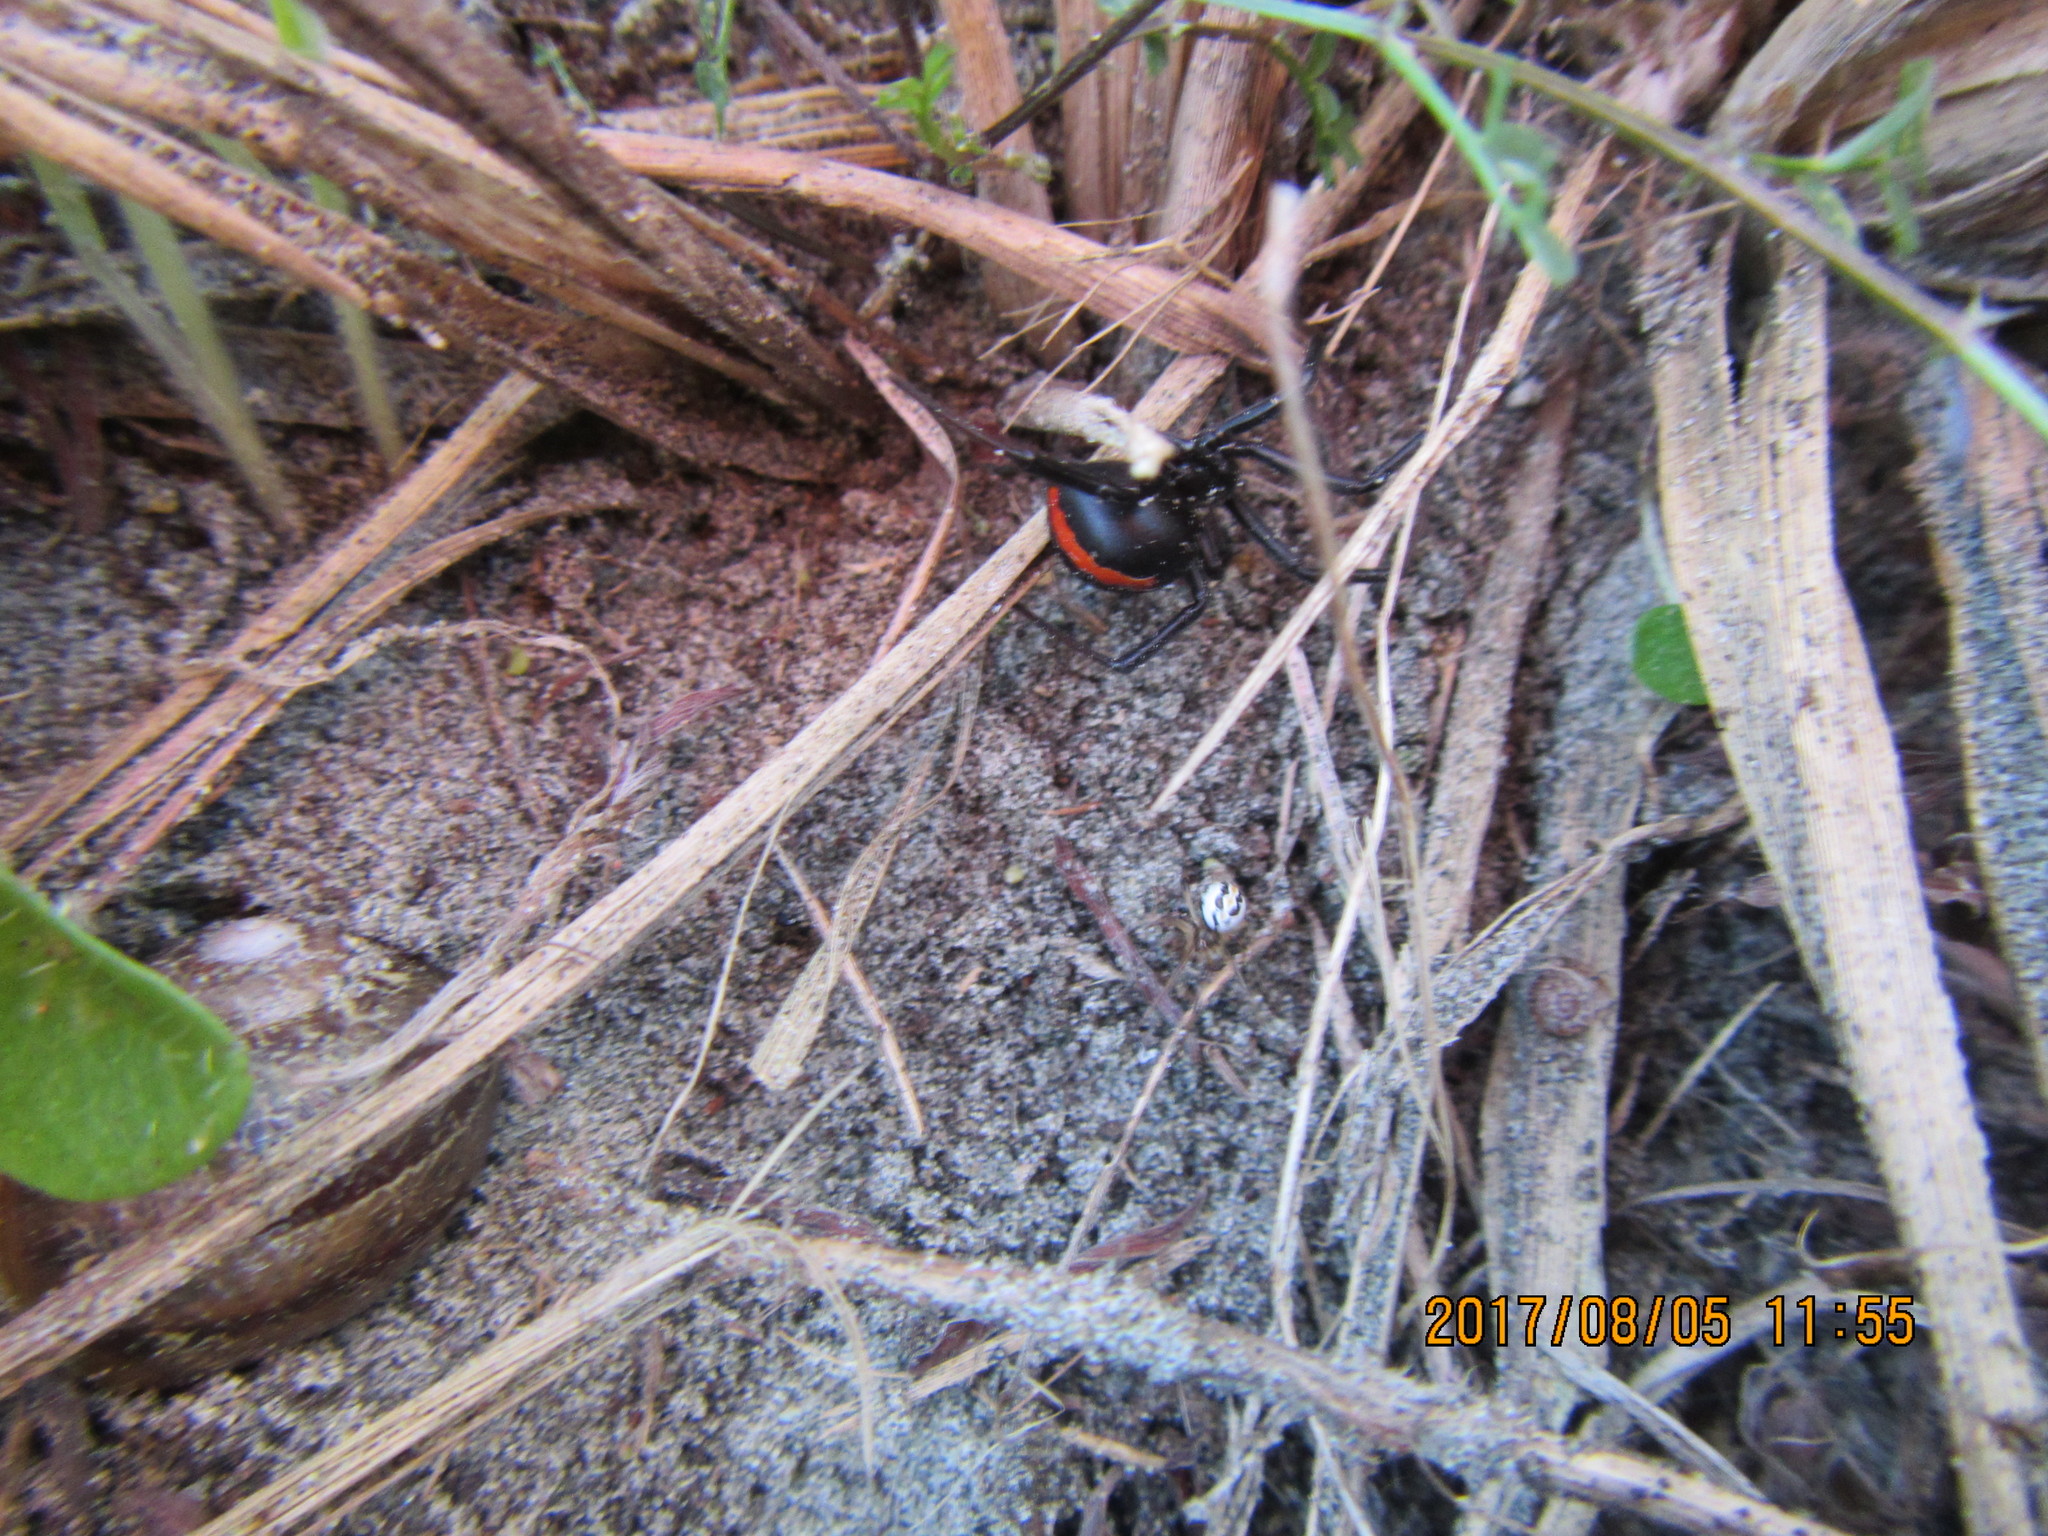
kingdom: Animalia
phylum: Arthropoda
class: Arachnida
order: Araneae
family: Theridiidae
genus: Latrodectus
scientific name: Latrodectus katipo
